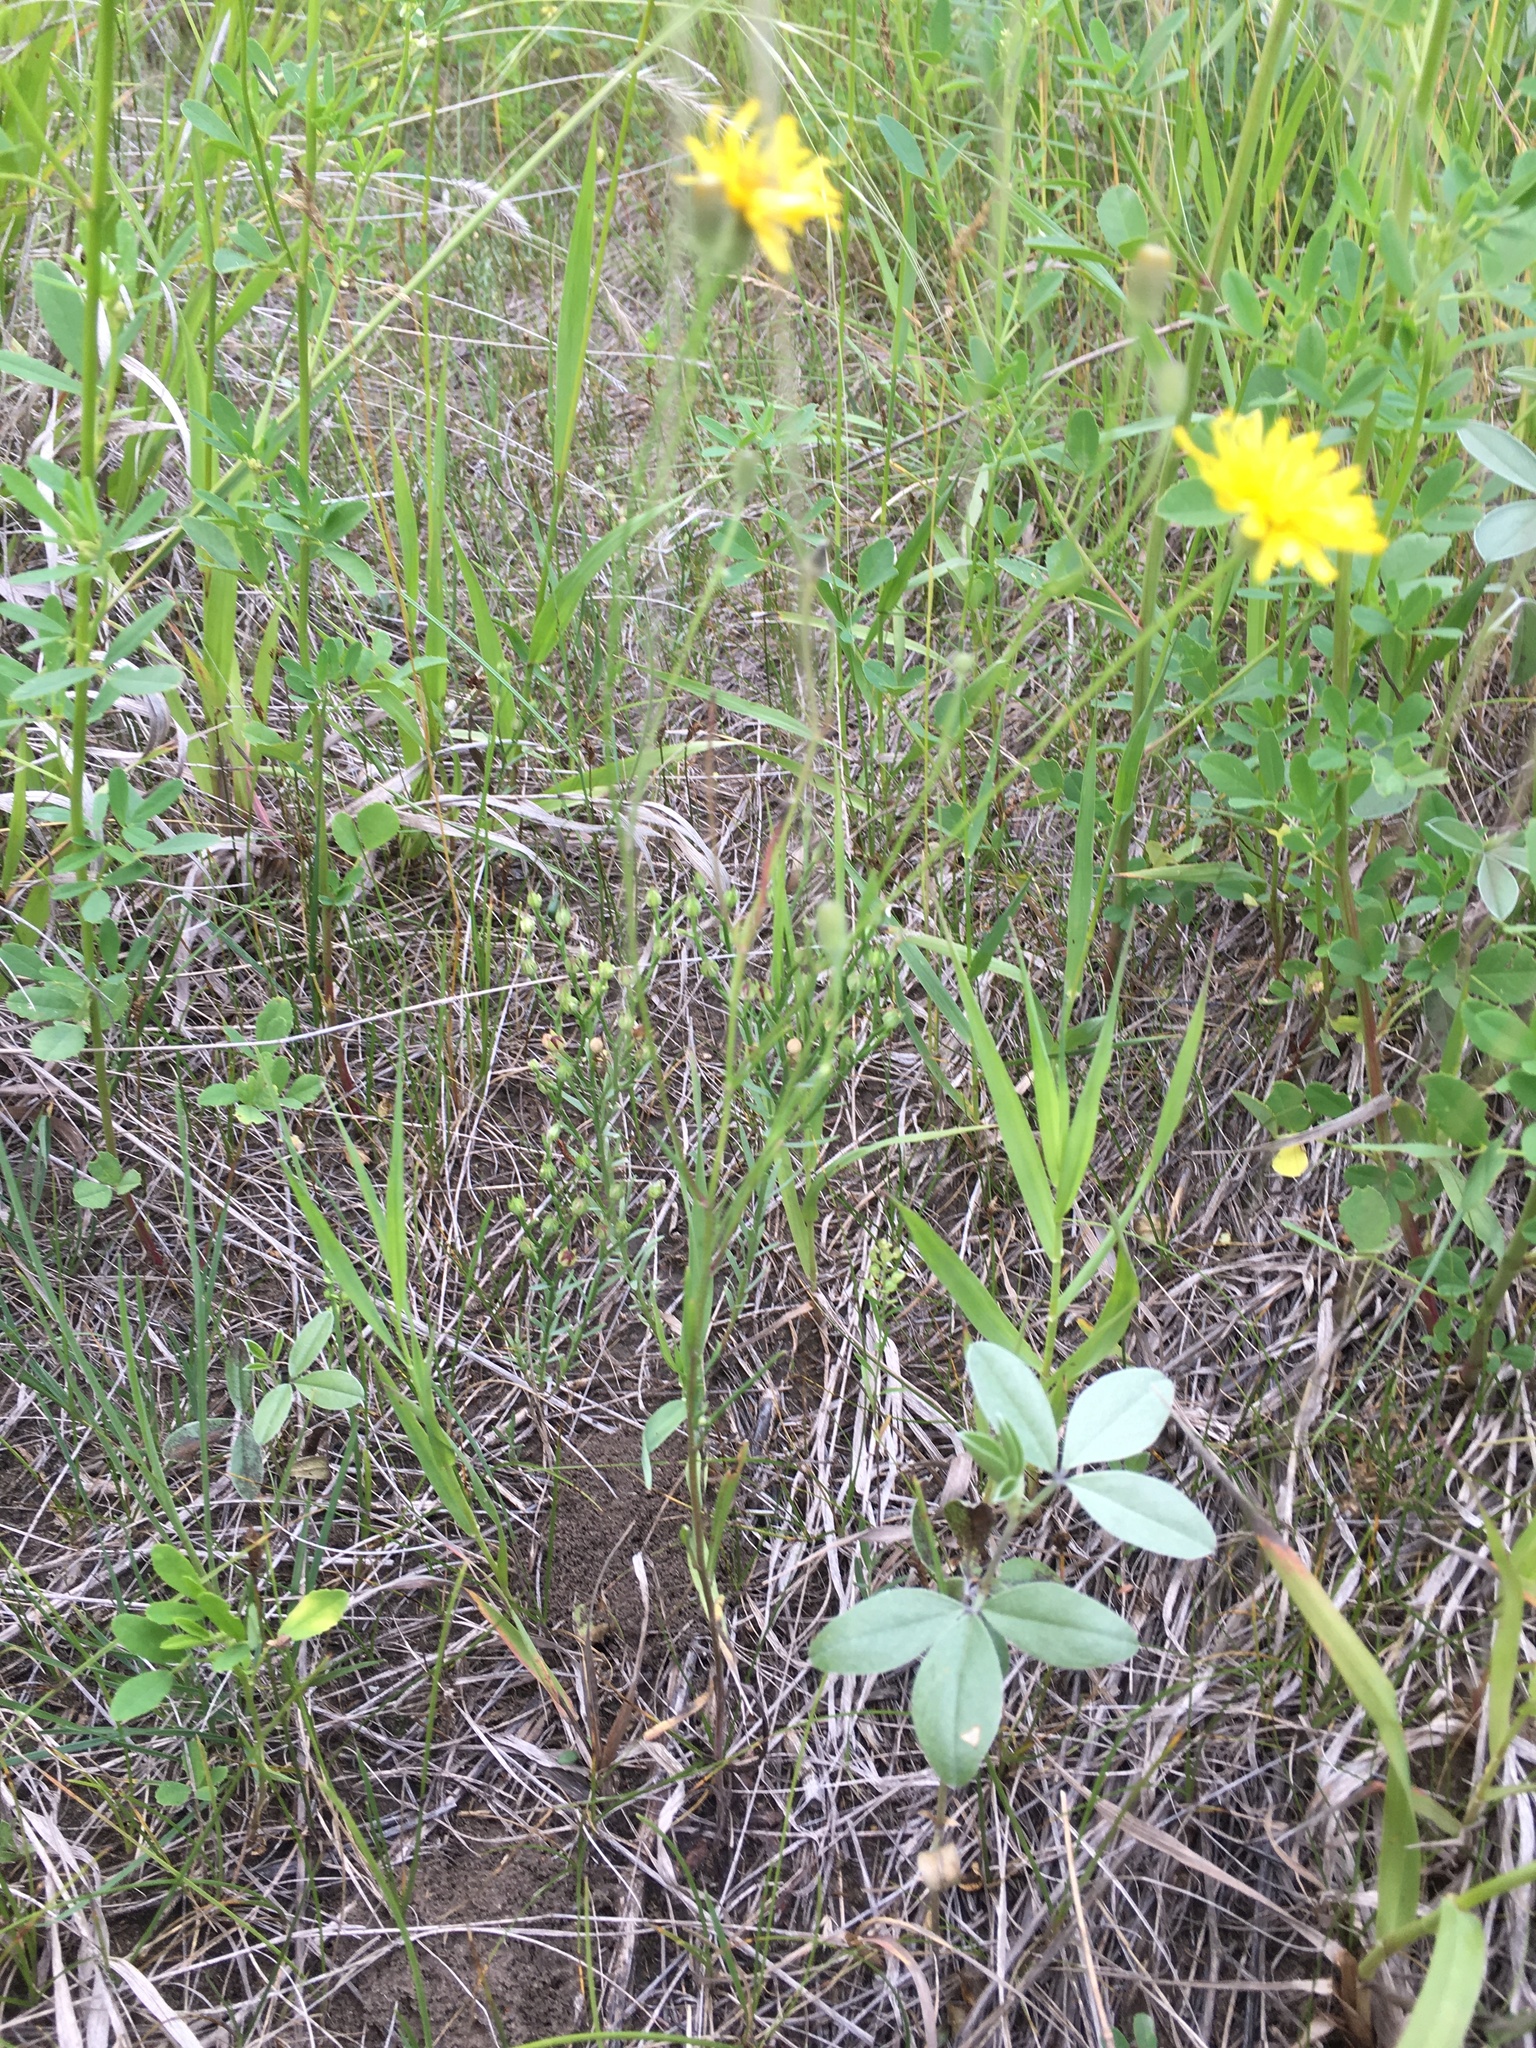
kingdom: Plantae
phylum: Tracheophyta
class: Magnoliopsida
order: Asterales
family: Asteraceae
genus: Crepis
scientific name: Crepis tectorum
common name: Narrow-leaved hawk's-beard
